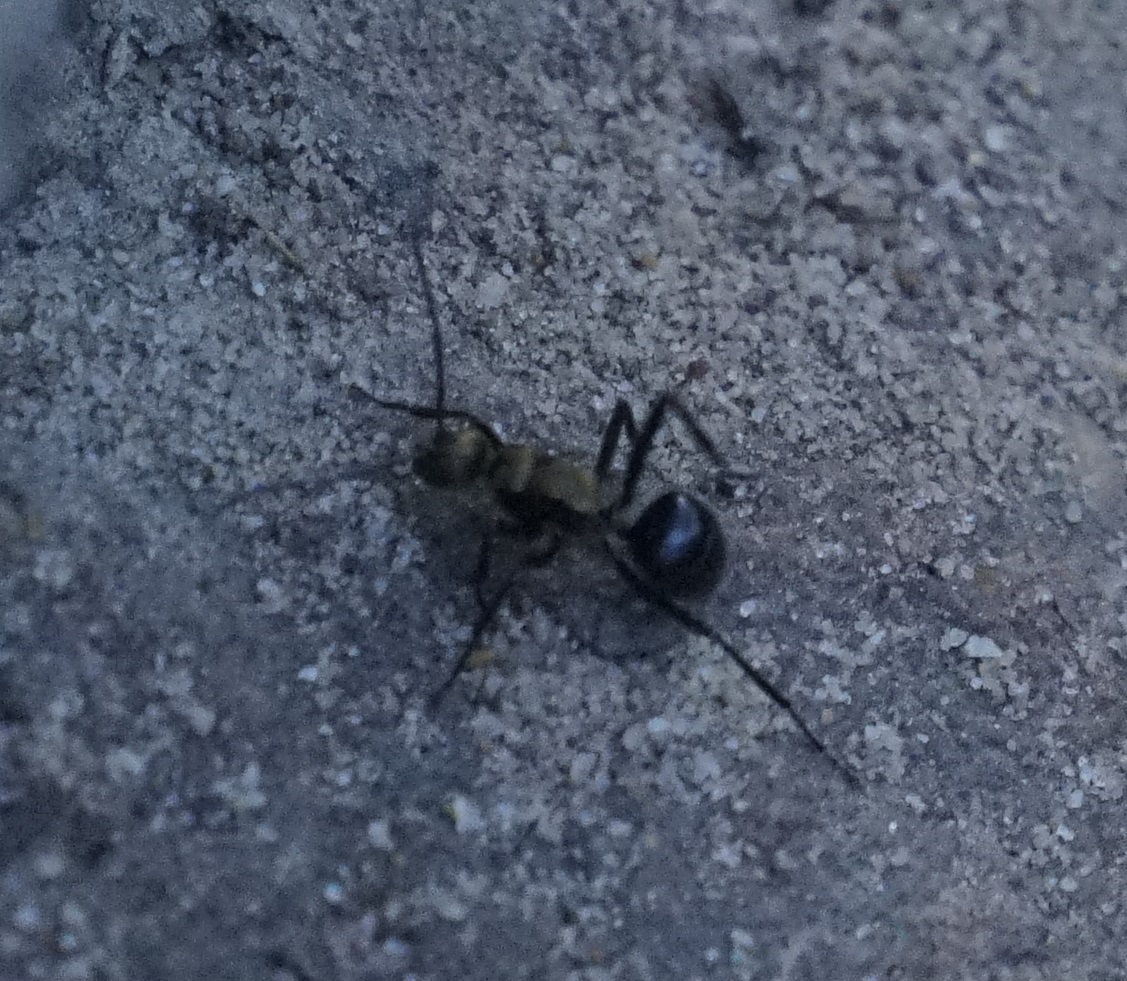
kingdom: Animalia
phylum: Arthropoda
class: Insecta
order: Hymenoptera
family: Formicidae
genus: Polyrhachis
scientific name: Polyrhachis semiaurata
